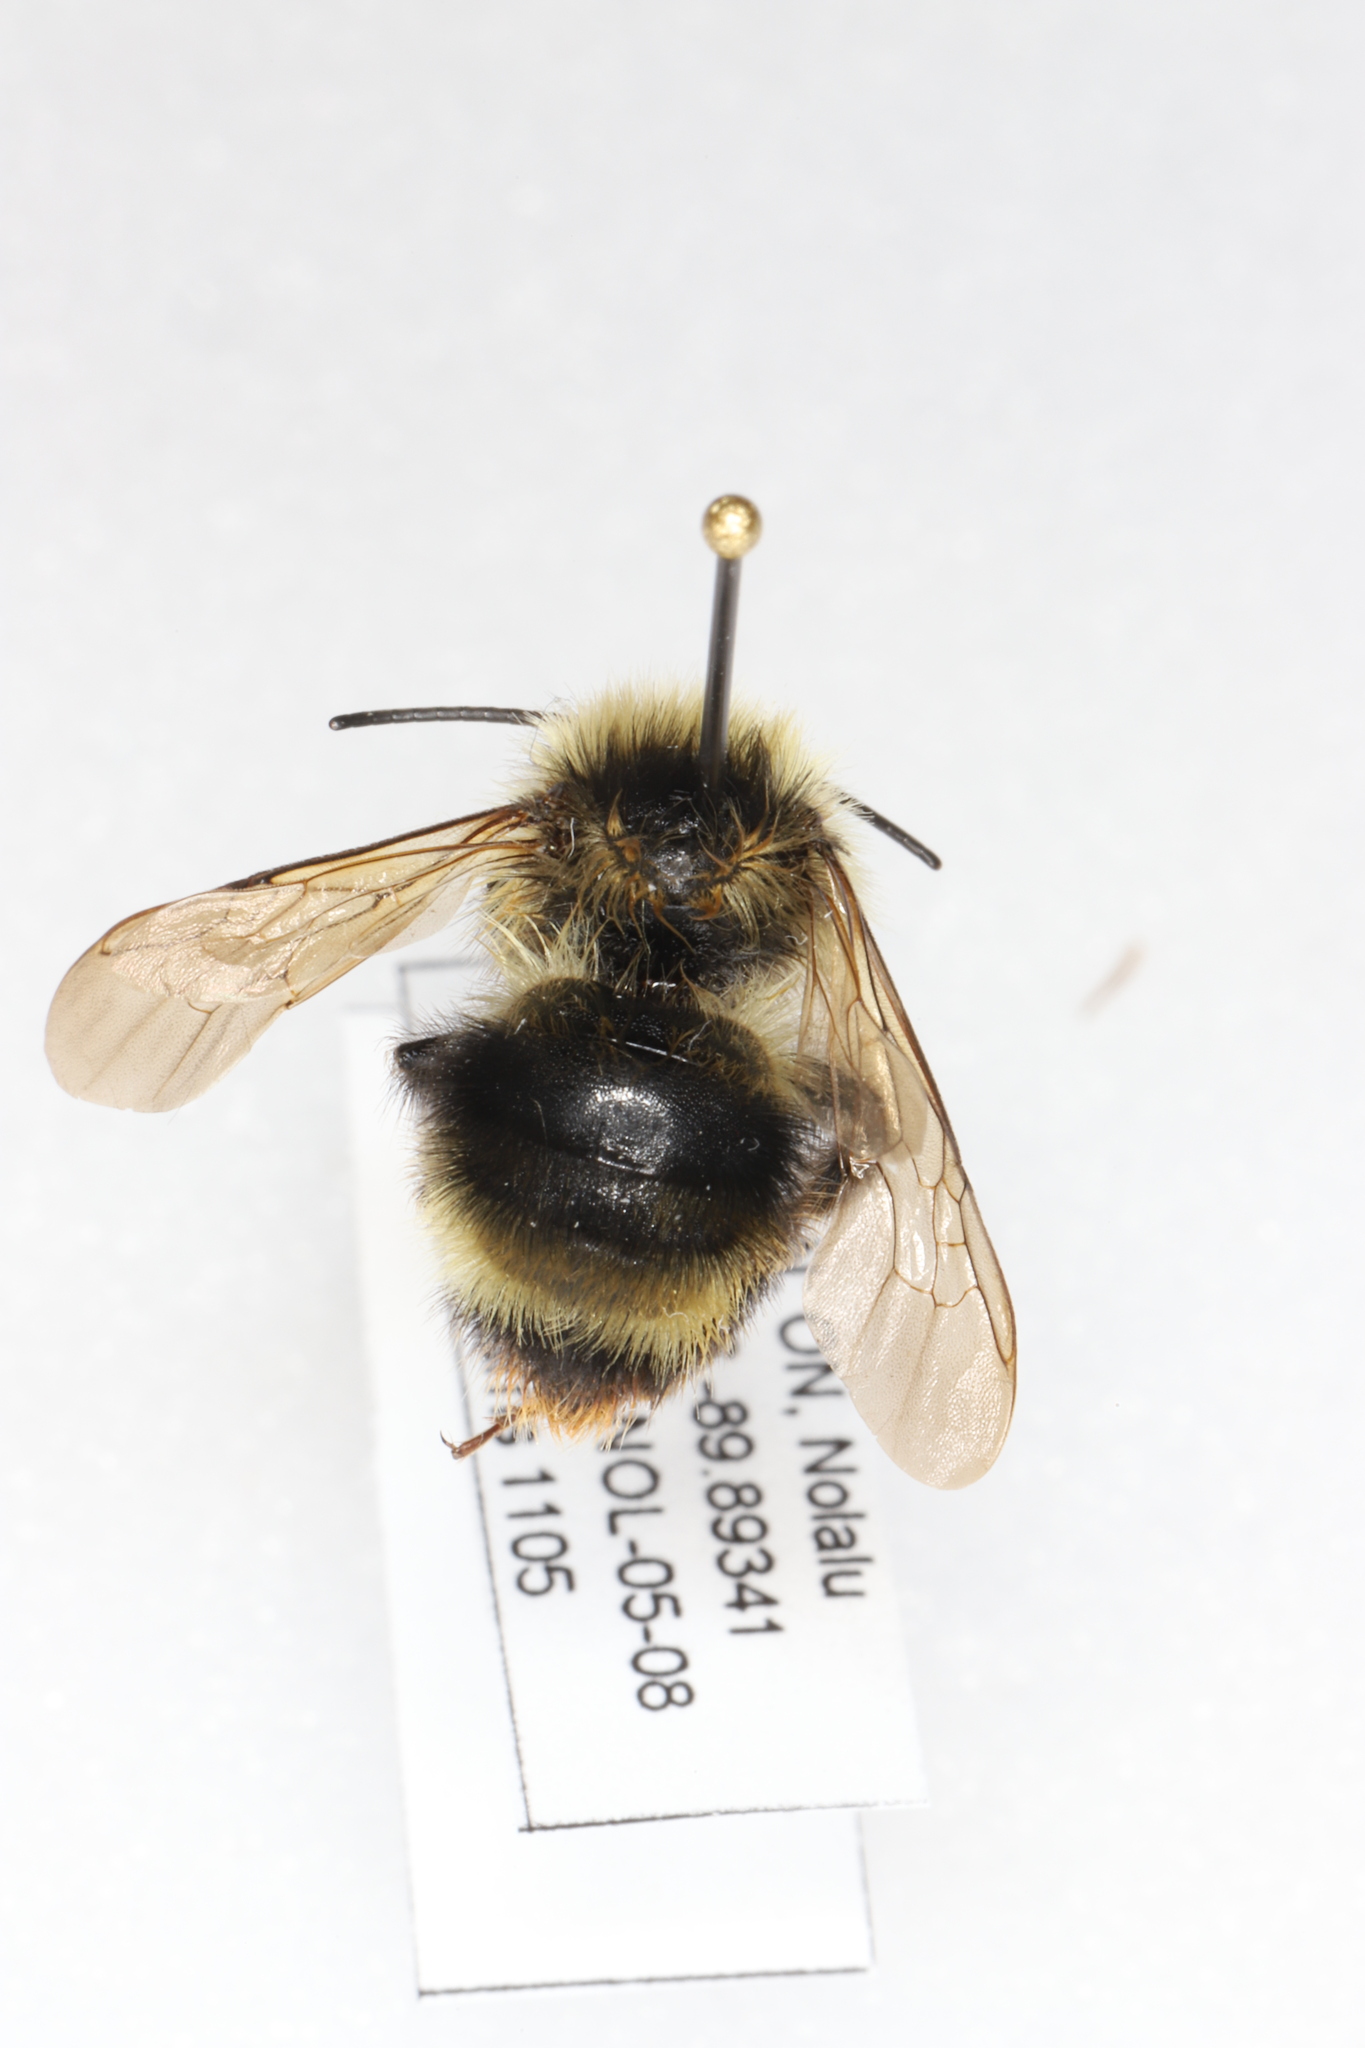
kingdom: Animalia
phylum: Arthropoda
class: Insecta
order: Hymenoptera
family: Apidae
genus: Bombus
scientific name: Bombus flavidus
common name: Fernald cuckoo bumble bee
